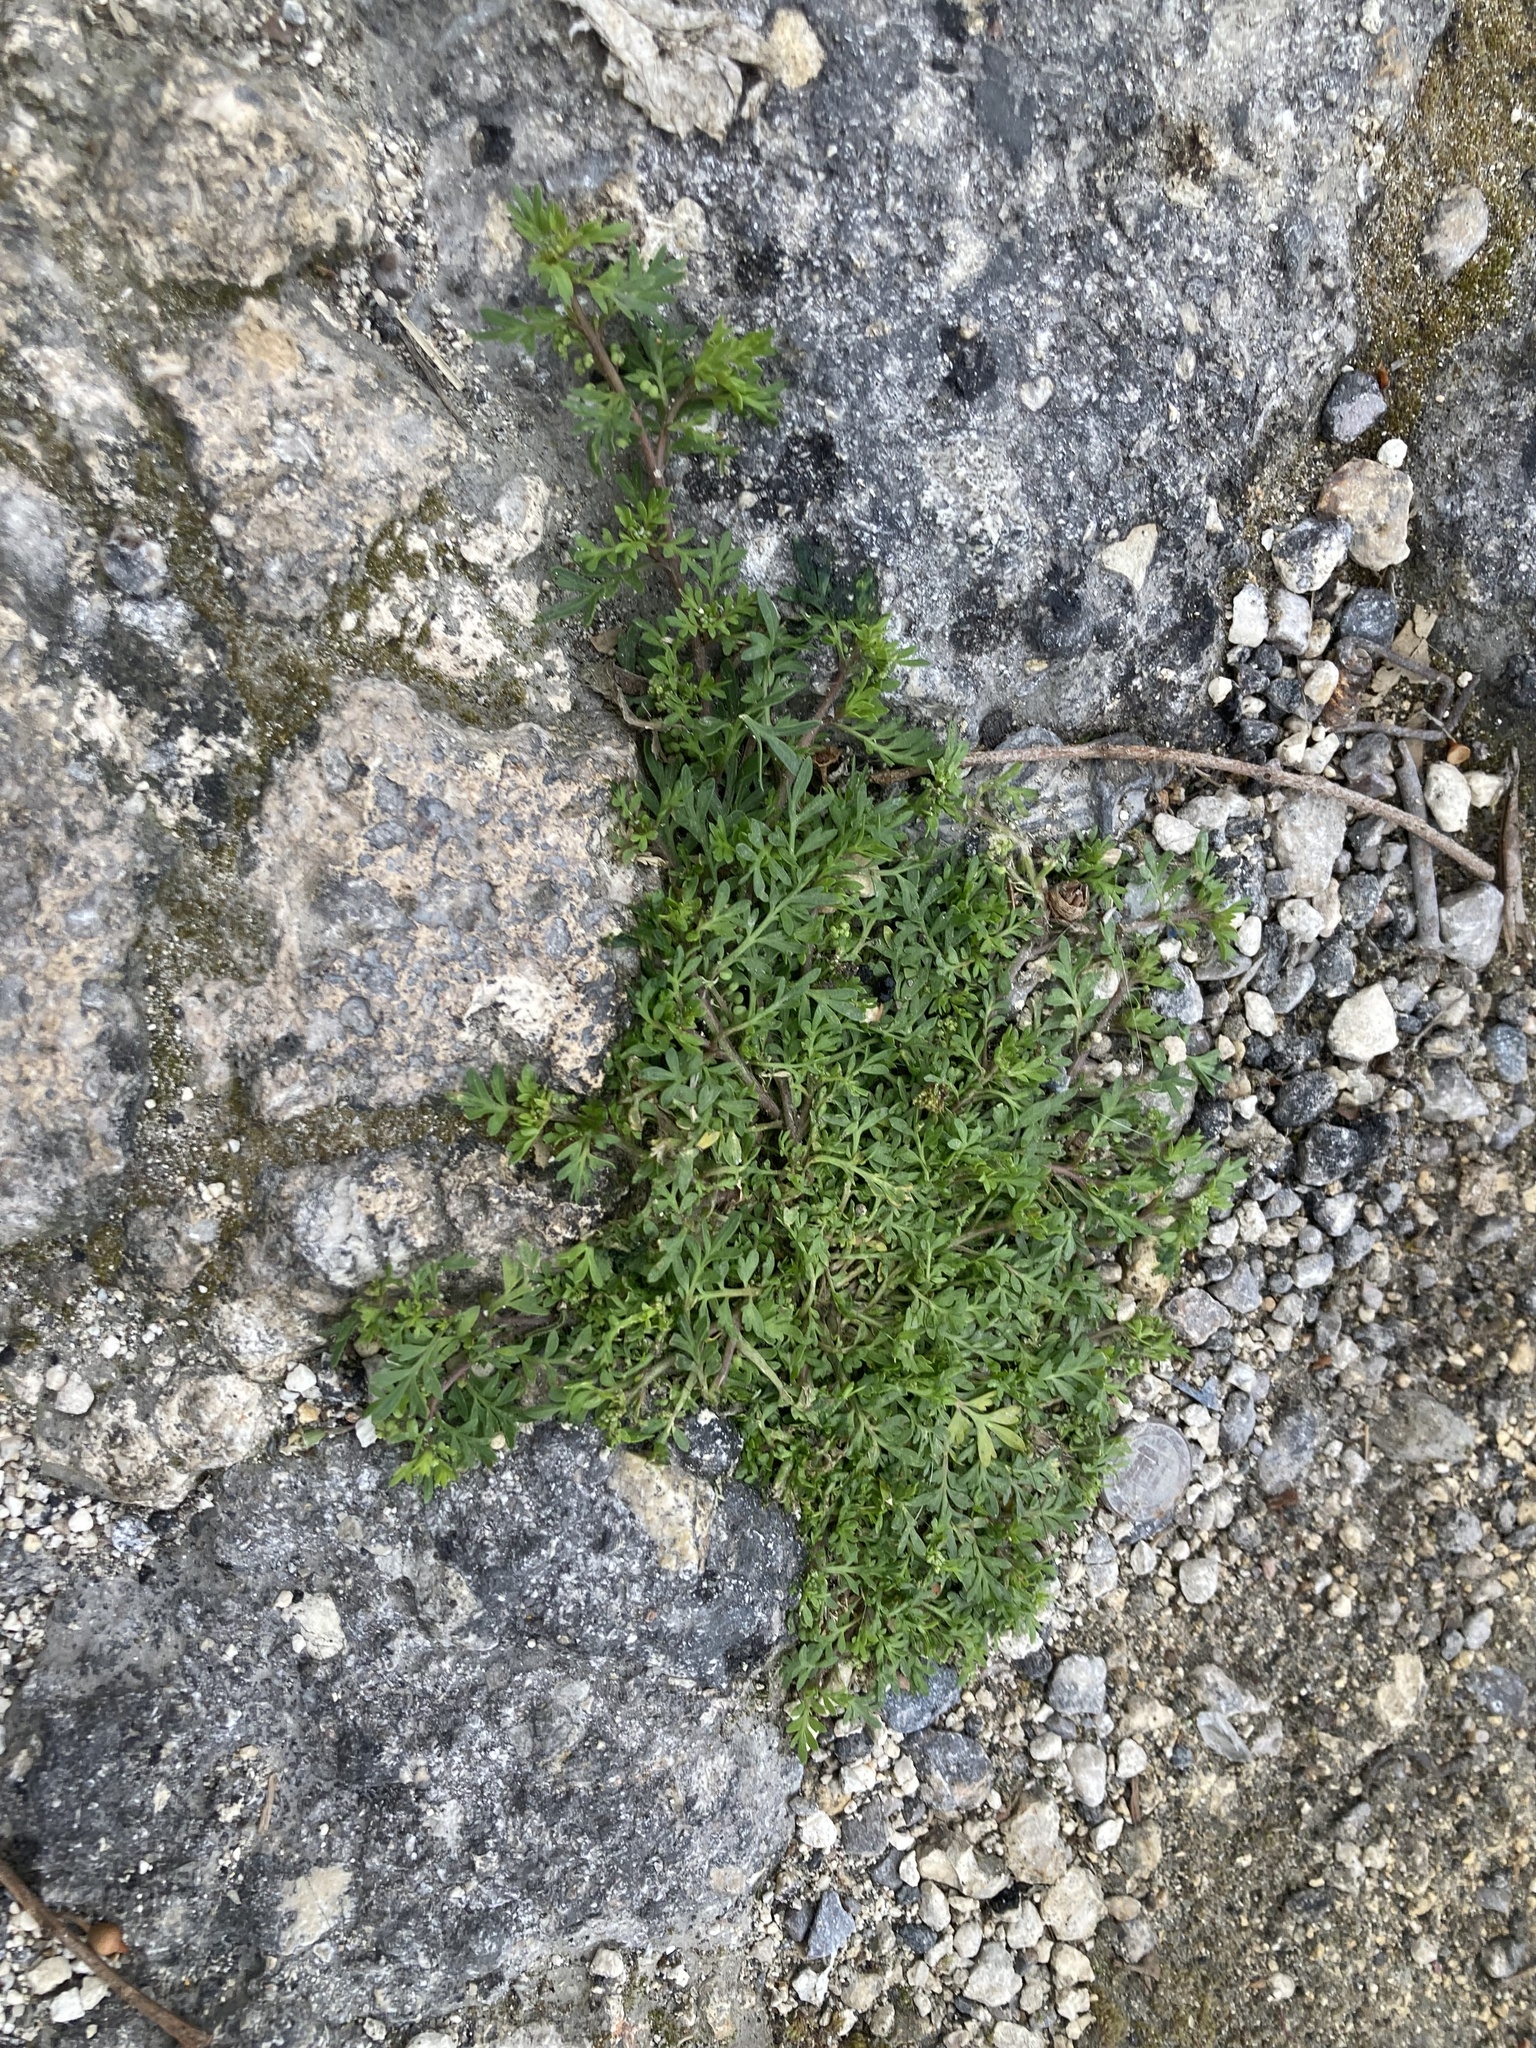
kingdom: Plantae
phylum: Tracheophyta
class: Magnoliopsida
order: Brassicales
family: Brassicaceae
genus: Lepidium
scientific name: Lepidium didymum
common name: Lesser swinecress
